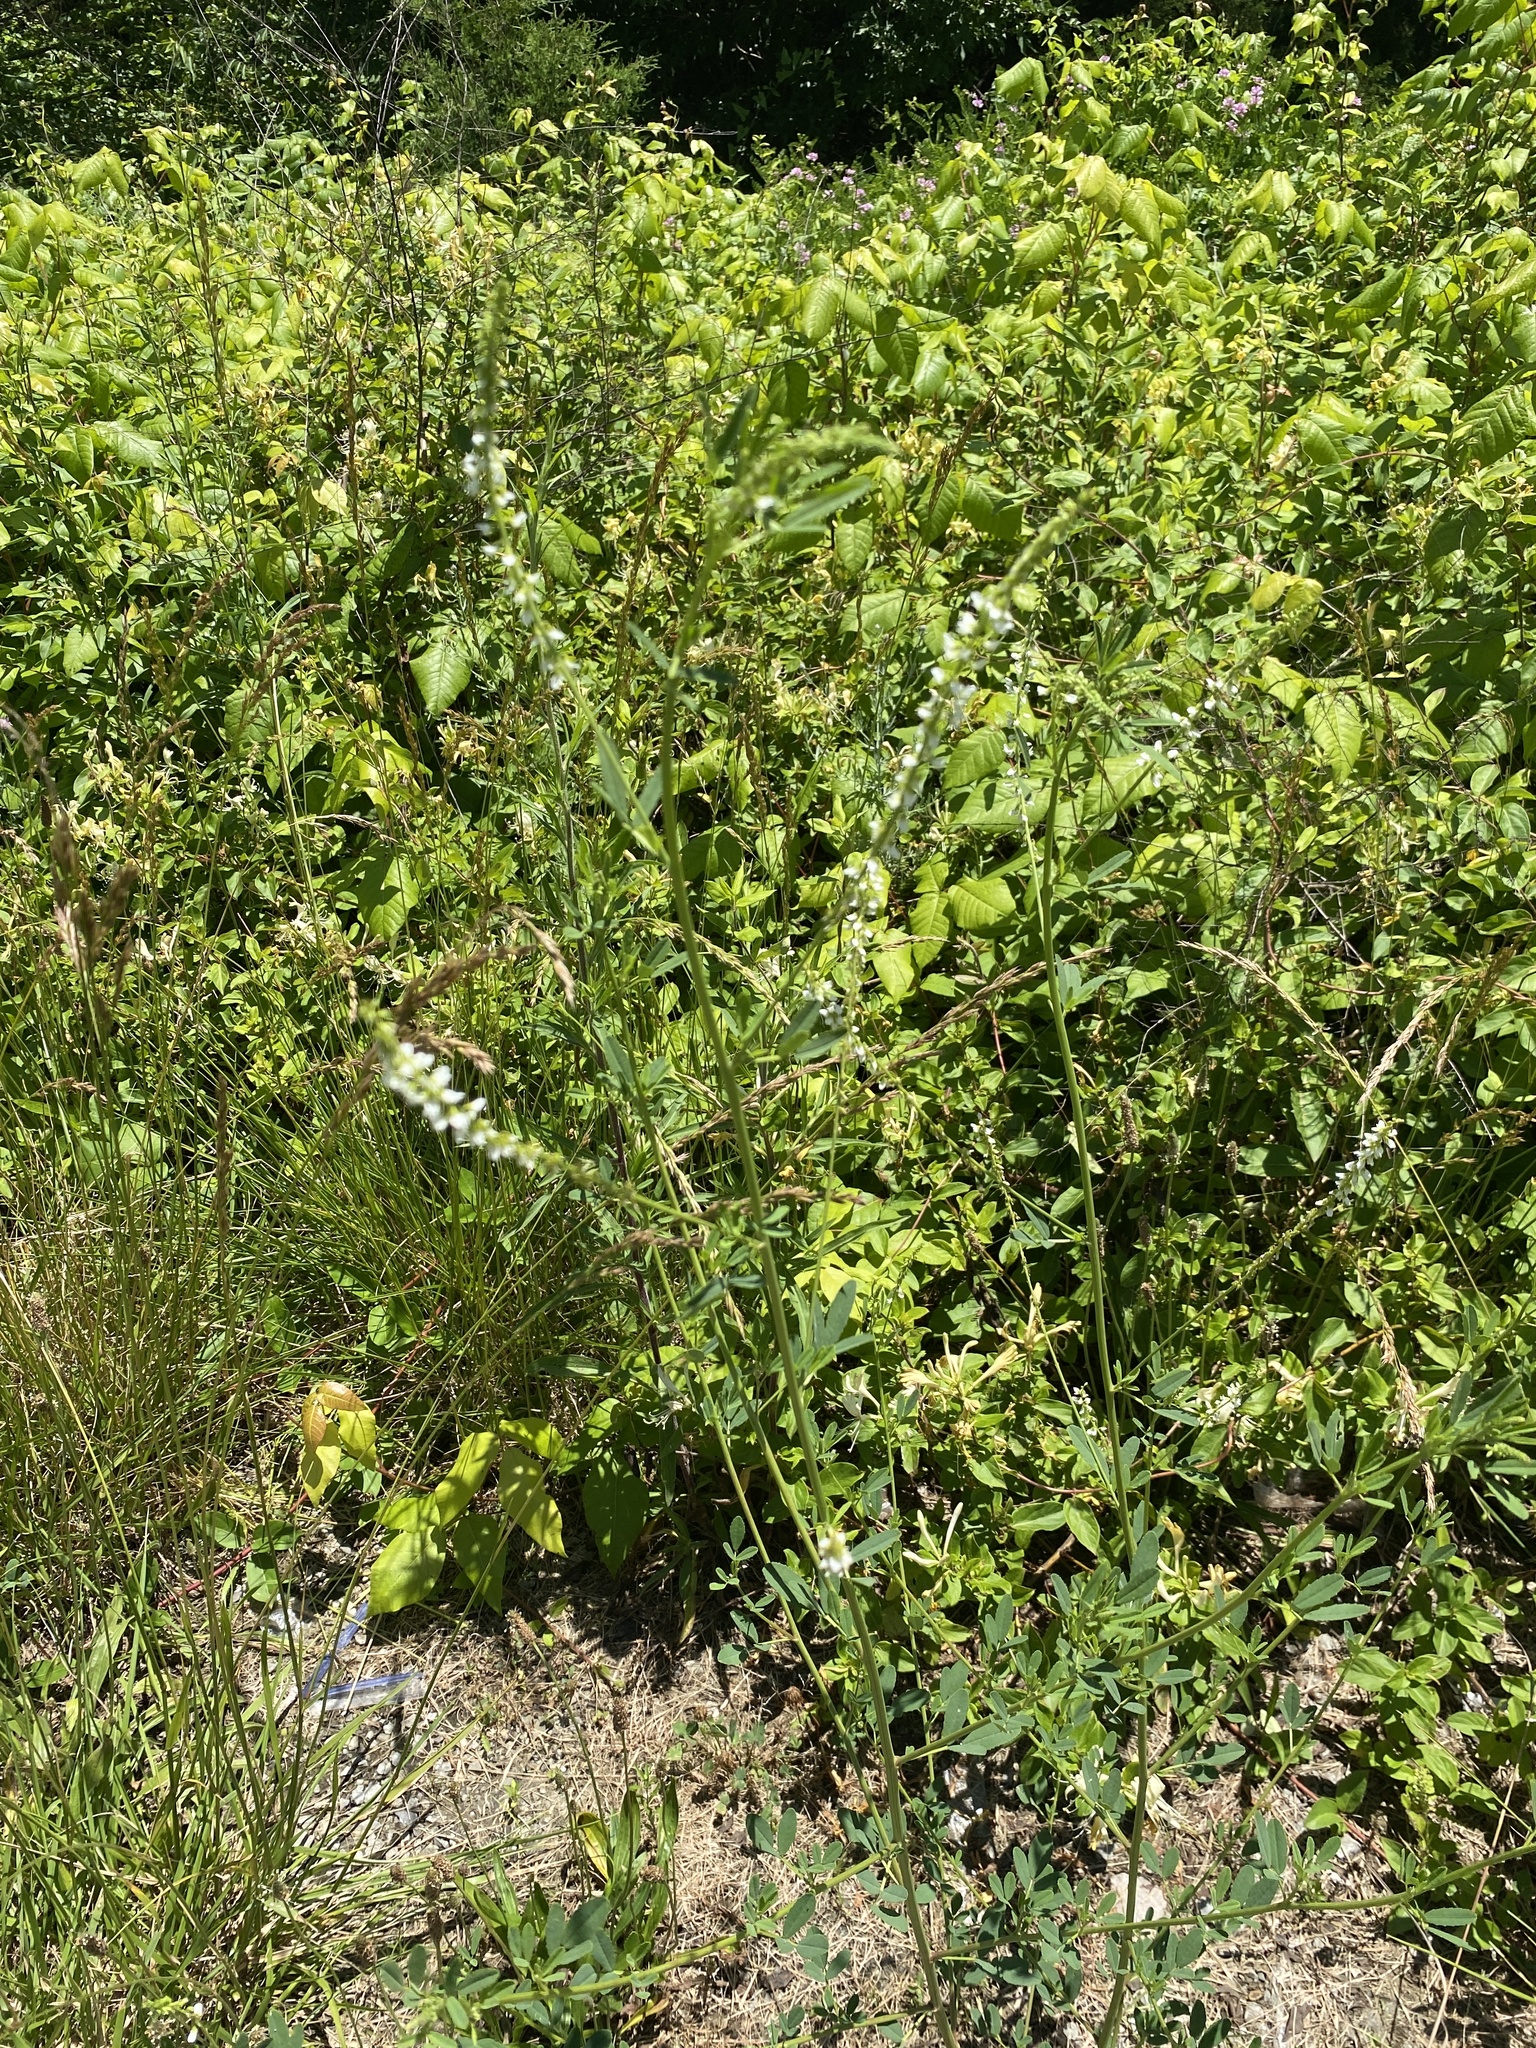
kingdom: Plantae
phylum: Tracheophyta
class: Magnoliopsida
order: Fabales
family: Fabaceae
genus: Melilotus
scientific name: Melilotus albus
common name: White melilot
